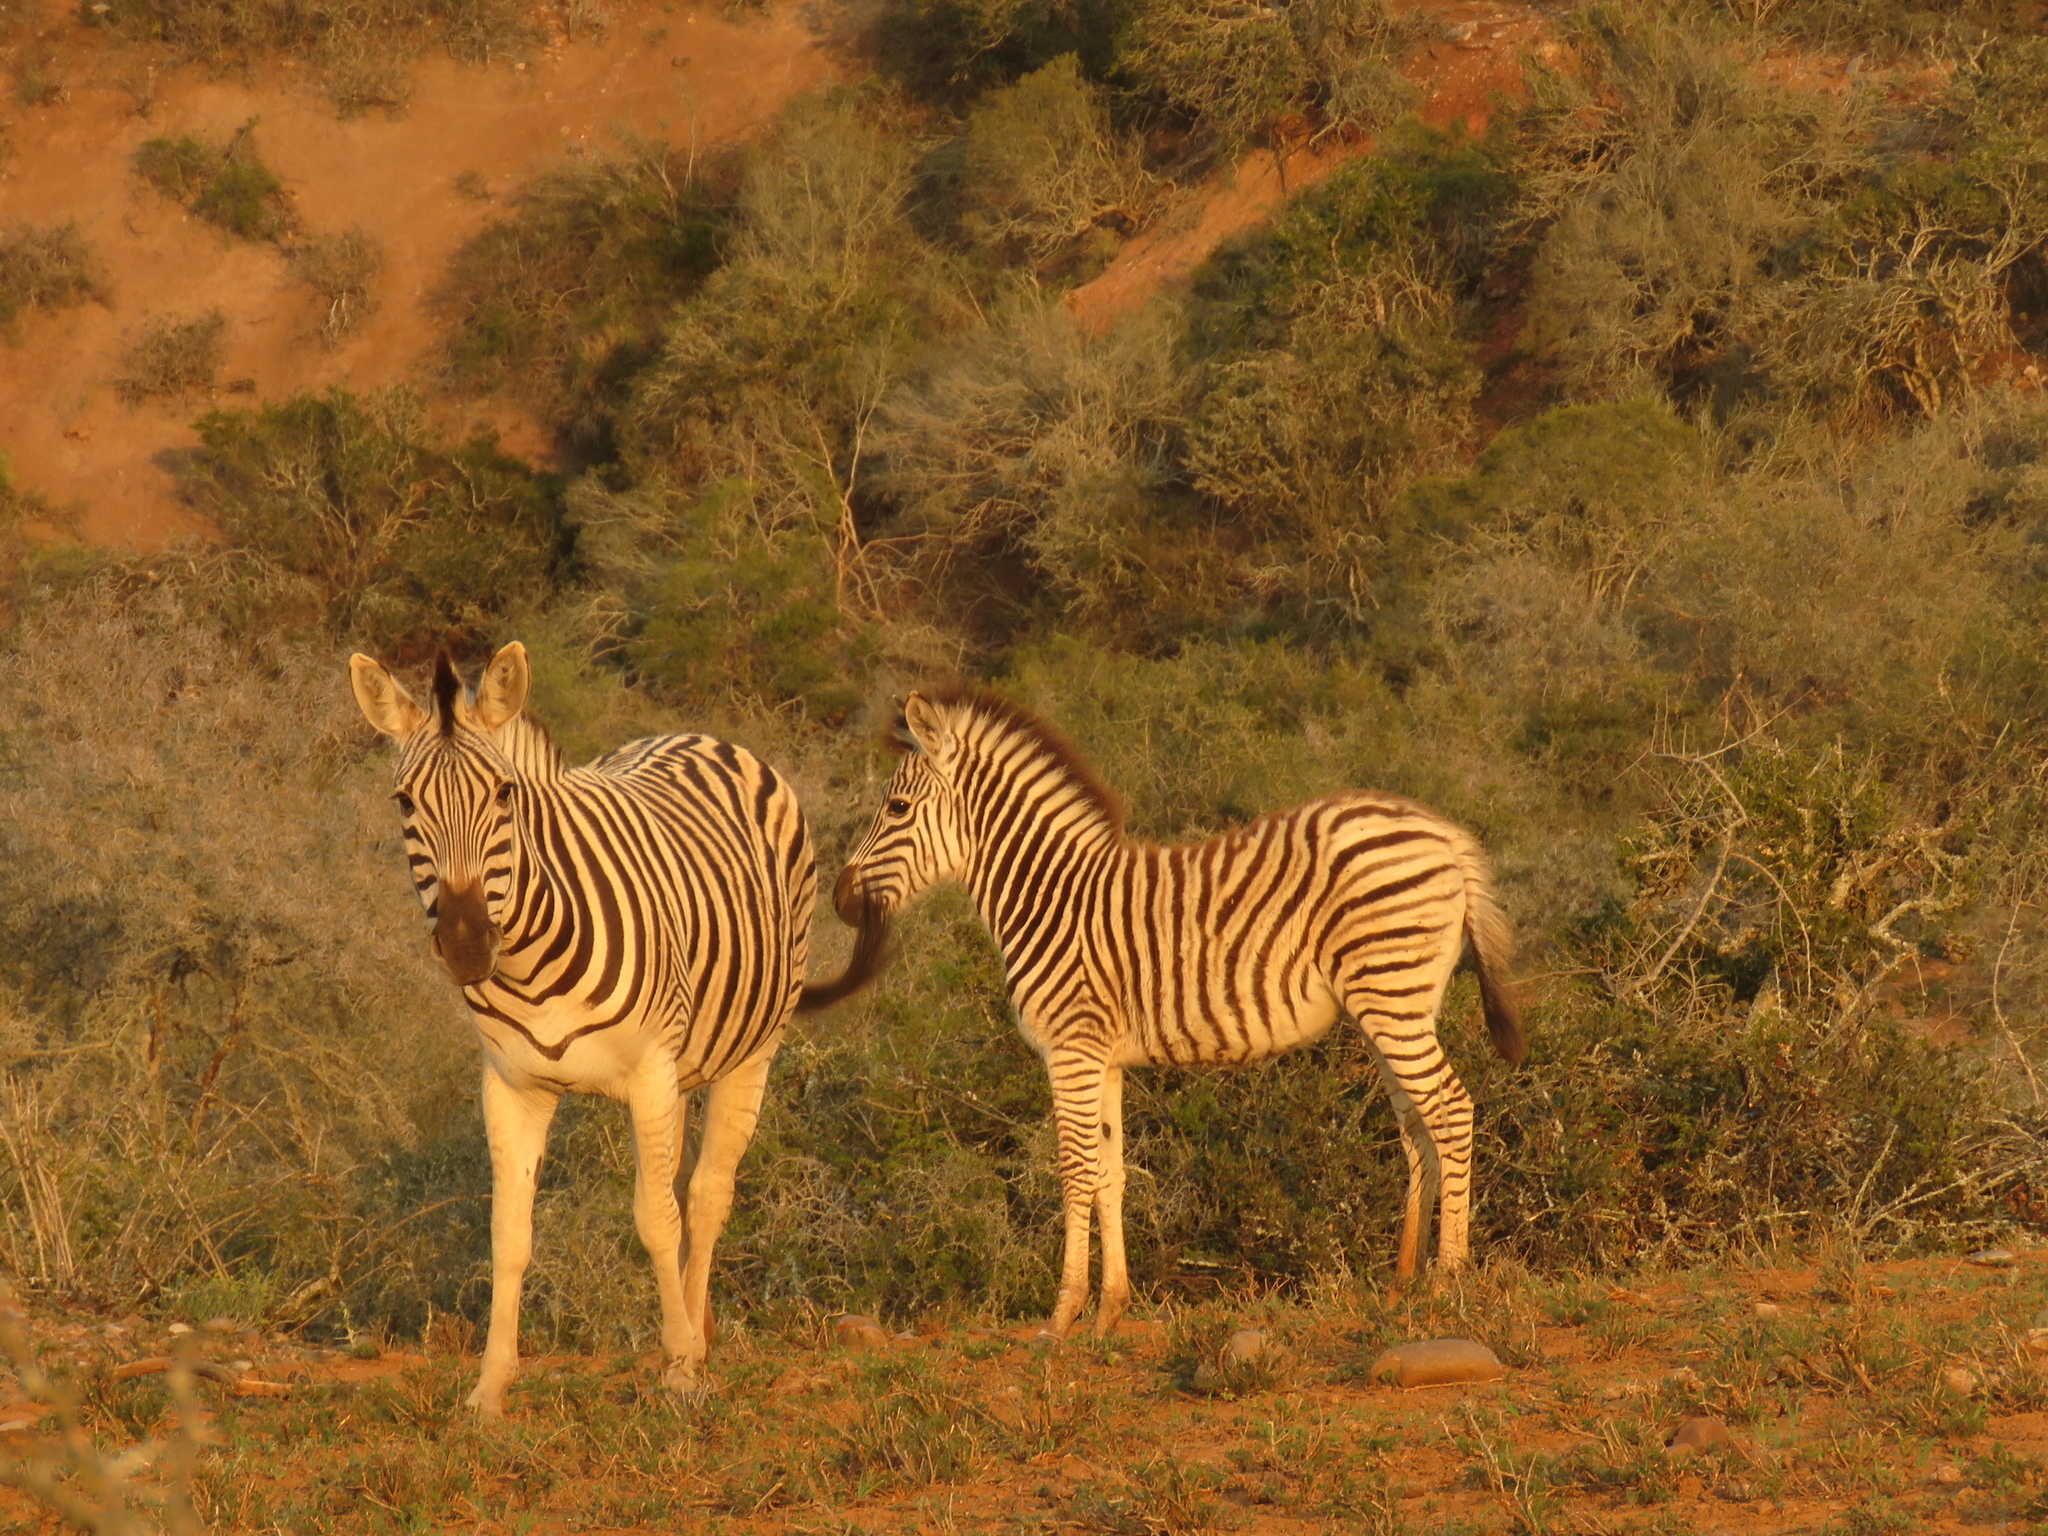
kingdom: Animalia
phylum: Chordata
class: Mammalia
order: Perissodactyla
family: Equidae
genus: Equus
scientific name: Equus quagga
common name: Plains zebra
